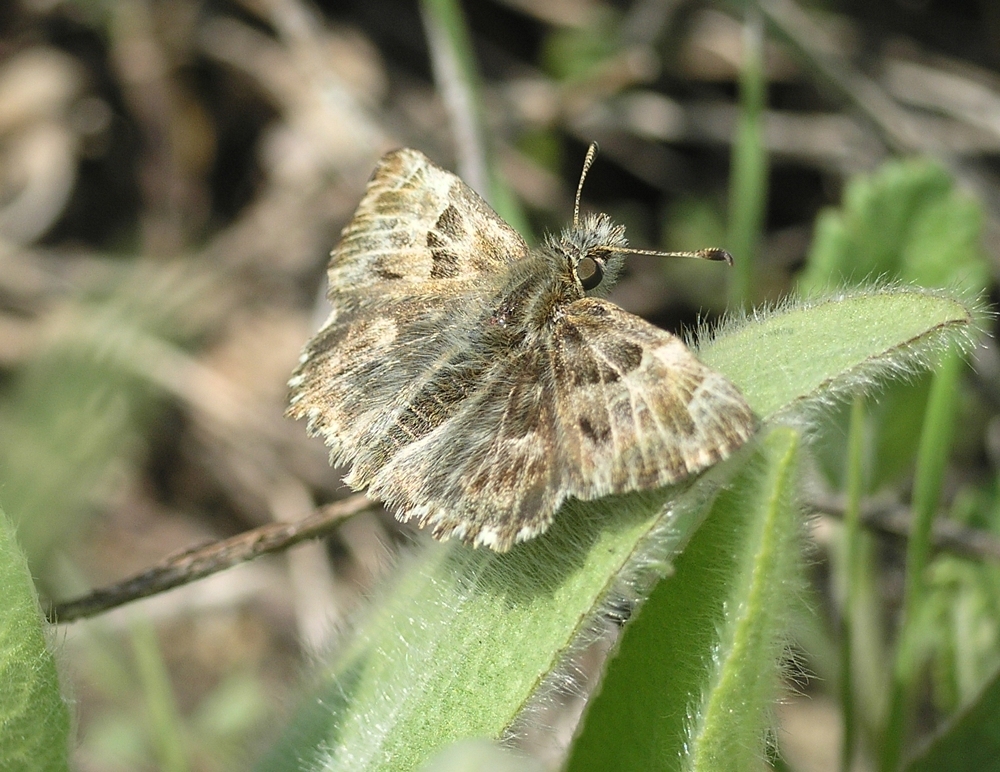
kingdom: Animalia
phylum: Arthropoda
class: Insecta
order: Lepidoptera
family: Hesperiidae
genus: Carcharodus
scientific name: Carcharodus alceae
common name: Mallow skipper
